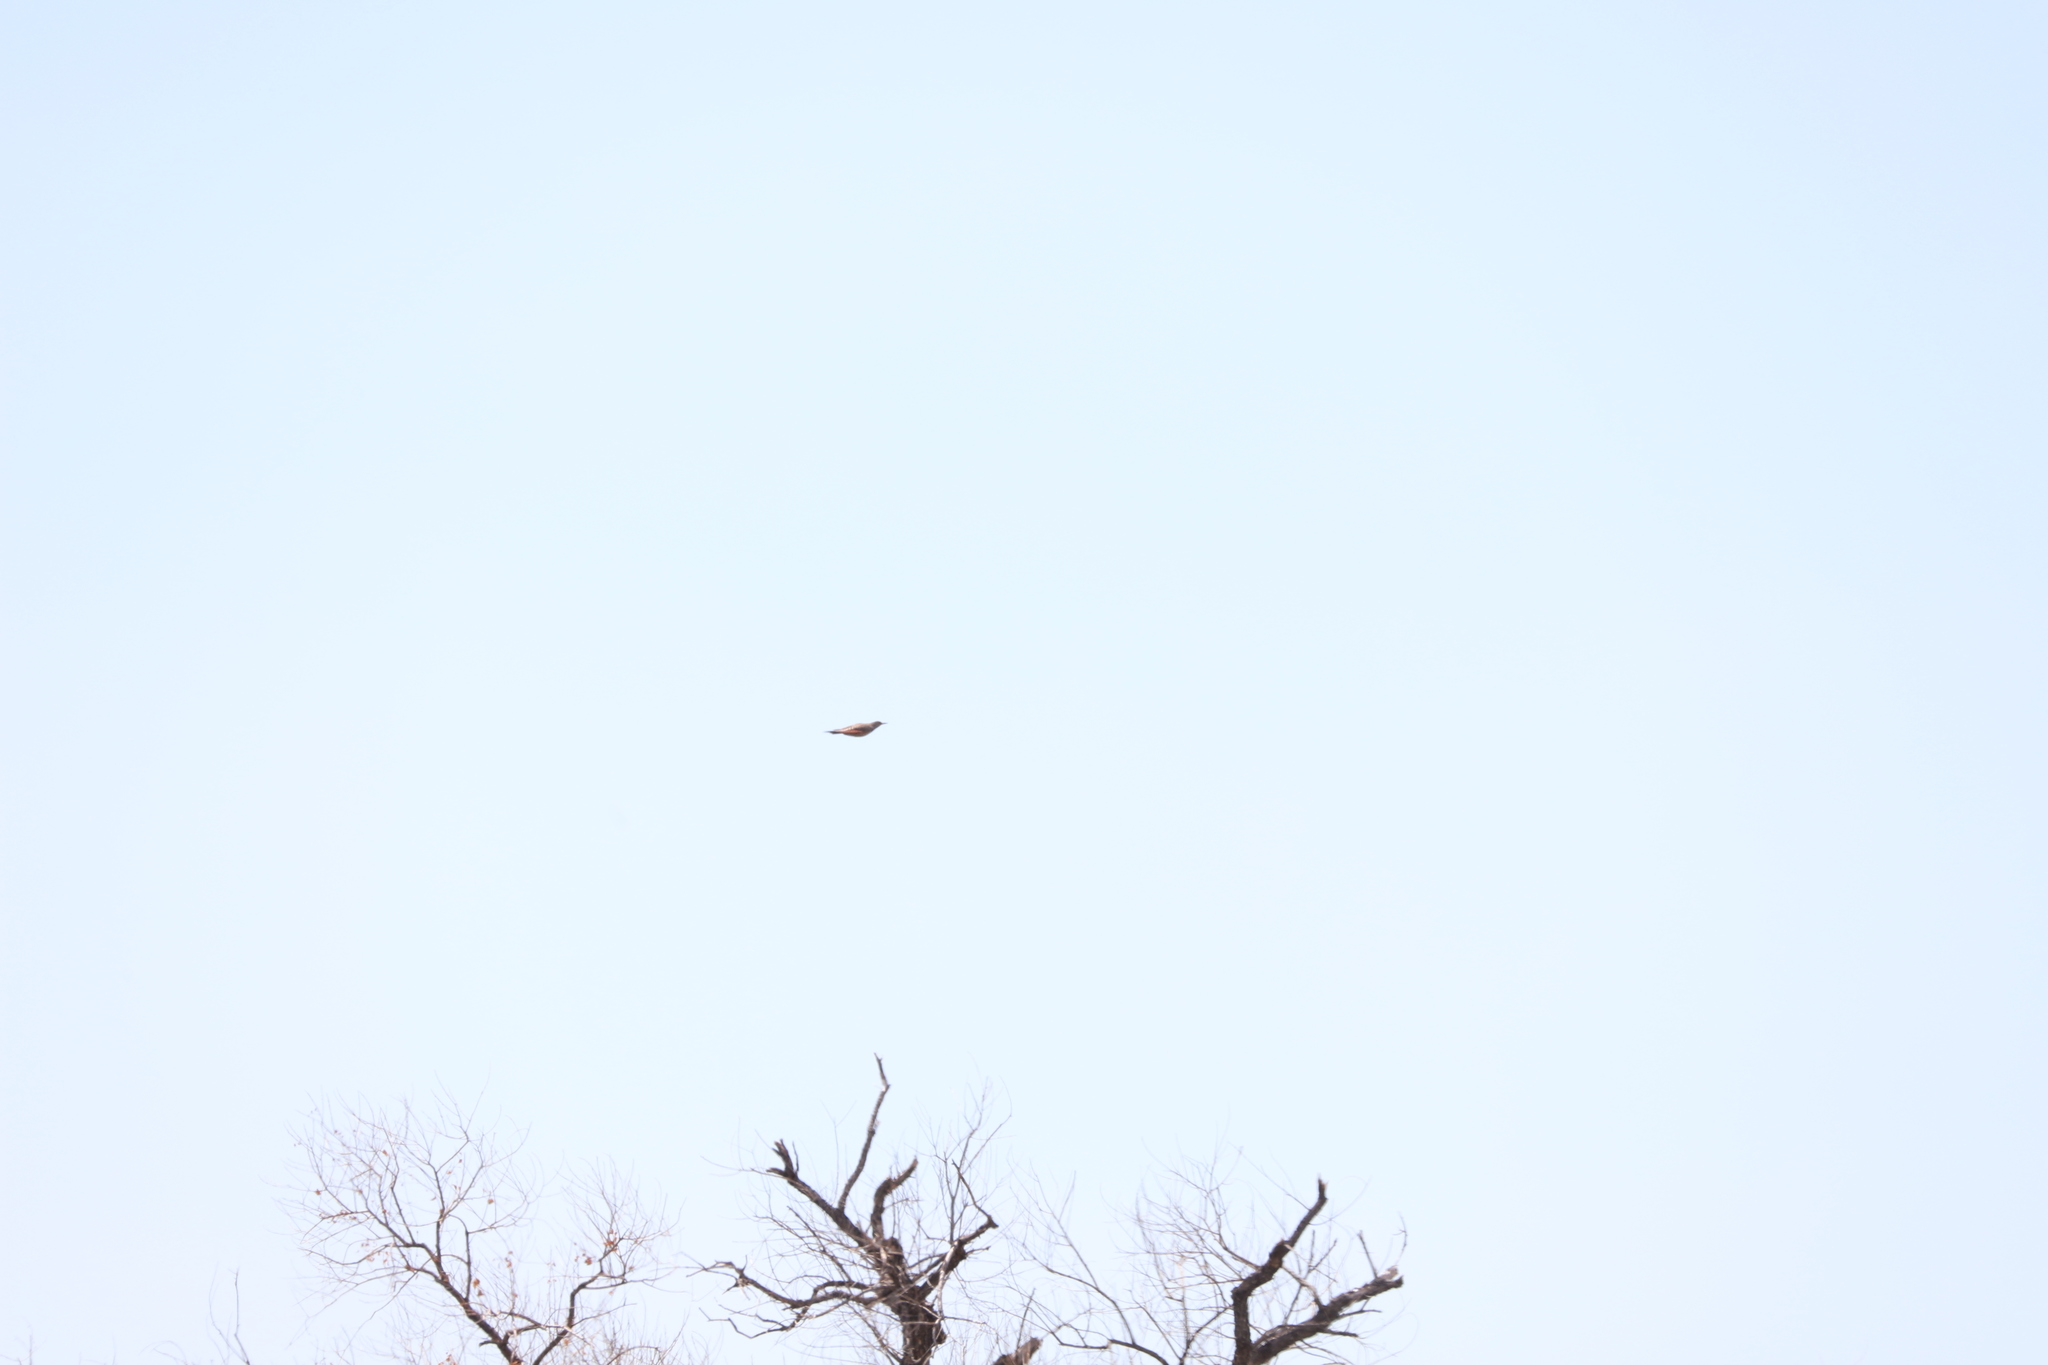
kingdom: Animalia
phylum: Chordata
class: Aves
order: Piciformes
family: Picidae
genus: Colaptes
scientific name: Colaptes auratus
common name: Northern flicker
